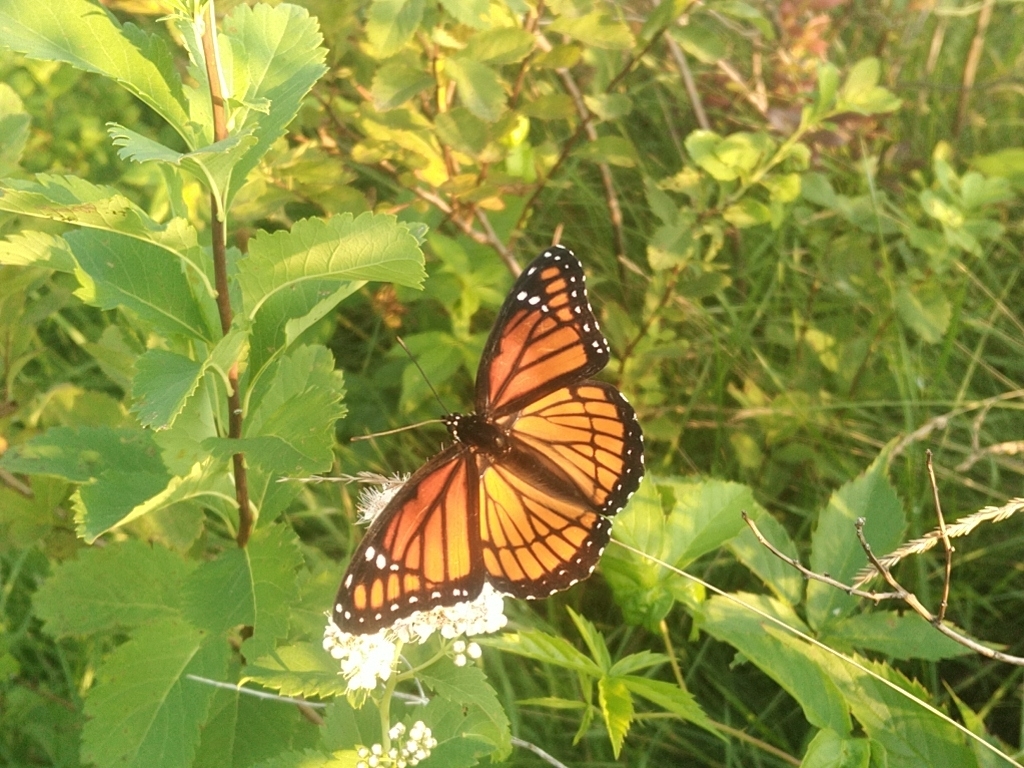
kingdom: Animalia
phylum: Arthropoda
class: Insecta
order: Lepidoptera
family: Nymphalidae
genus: Limenitis
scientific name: Limenitis archippus
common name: Viceroy
